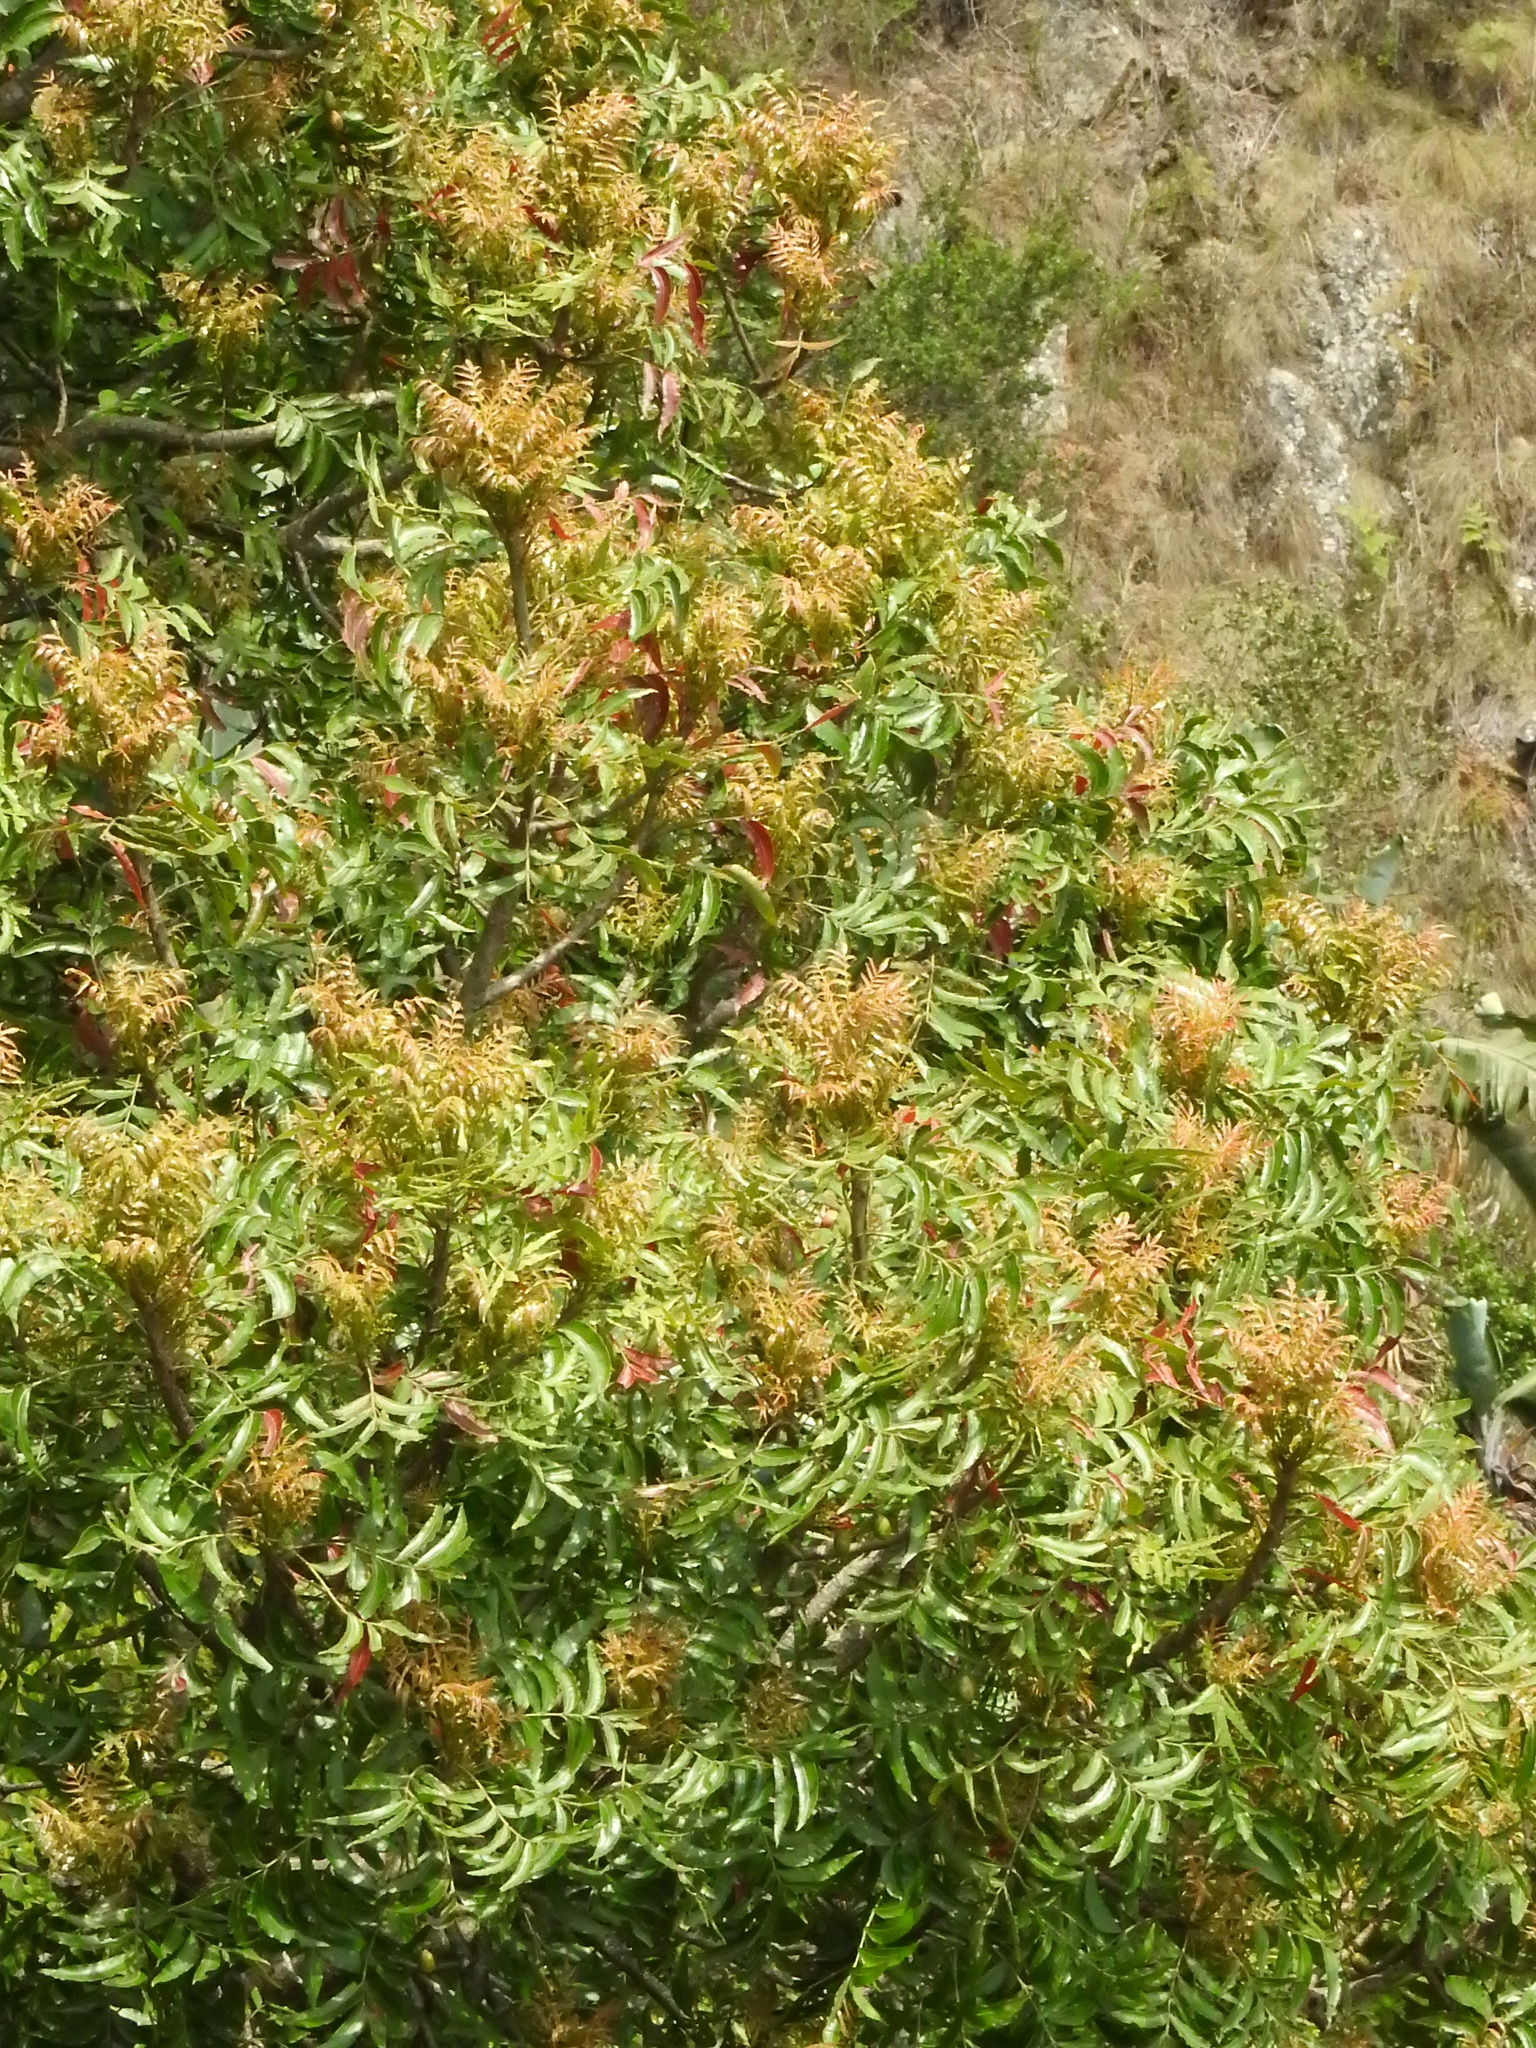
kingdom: Plantae
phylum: Tracheophyta
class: Magnoliopsida
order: Sapindales
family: Anacardiaceae
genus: Harpephyllum
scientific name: Harpephyllum caffrum
